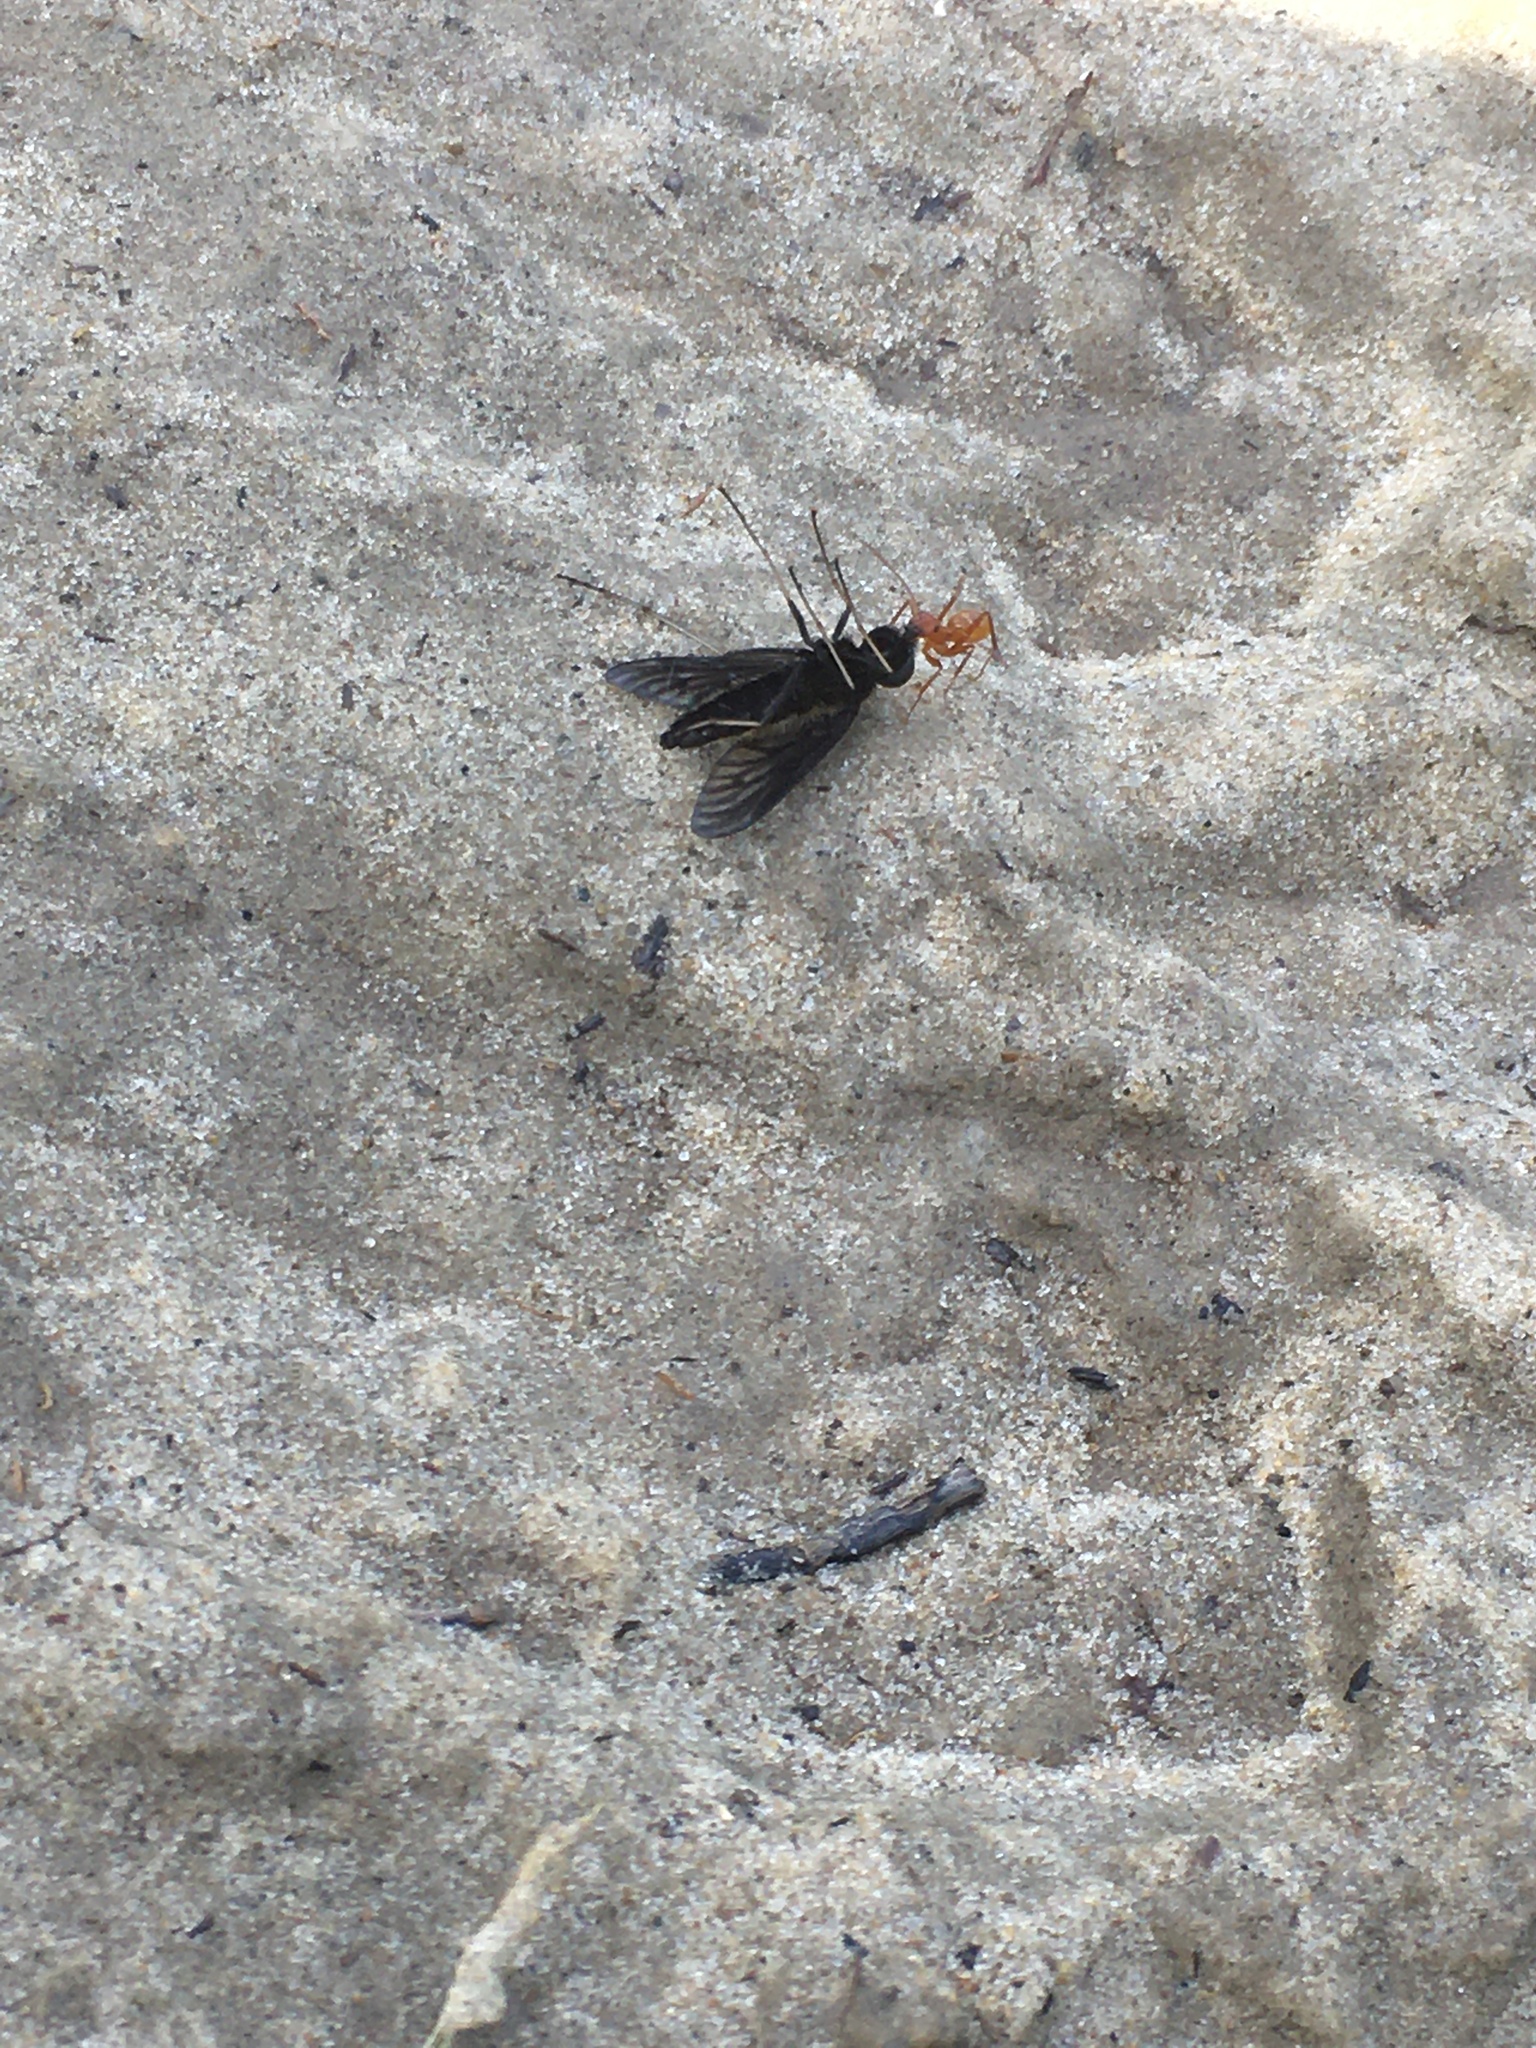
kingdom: Animalia
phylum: Arthropoda
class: Insecta
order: Hymenoptera
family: Formicidae
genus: Formica
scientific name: Formica
